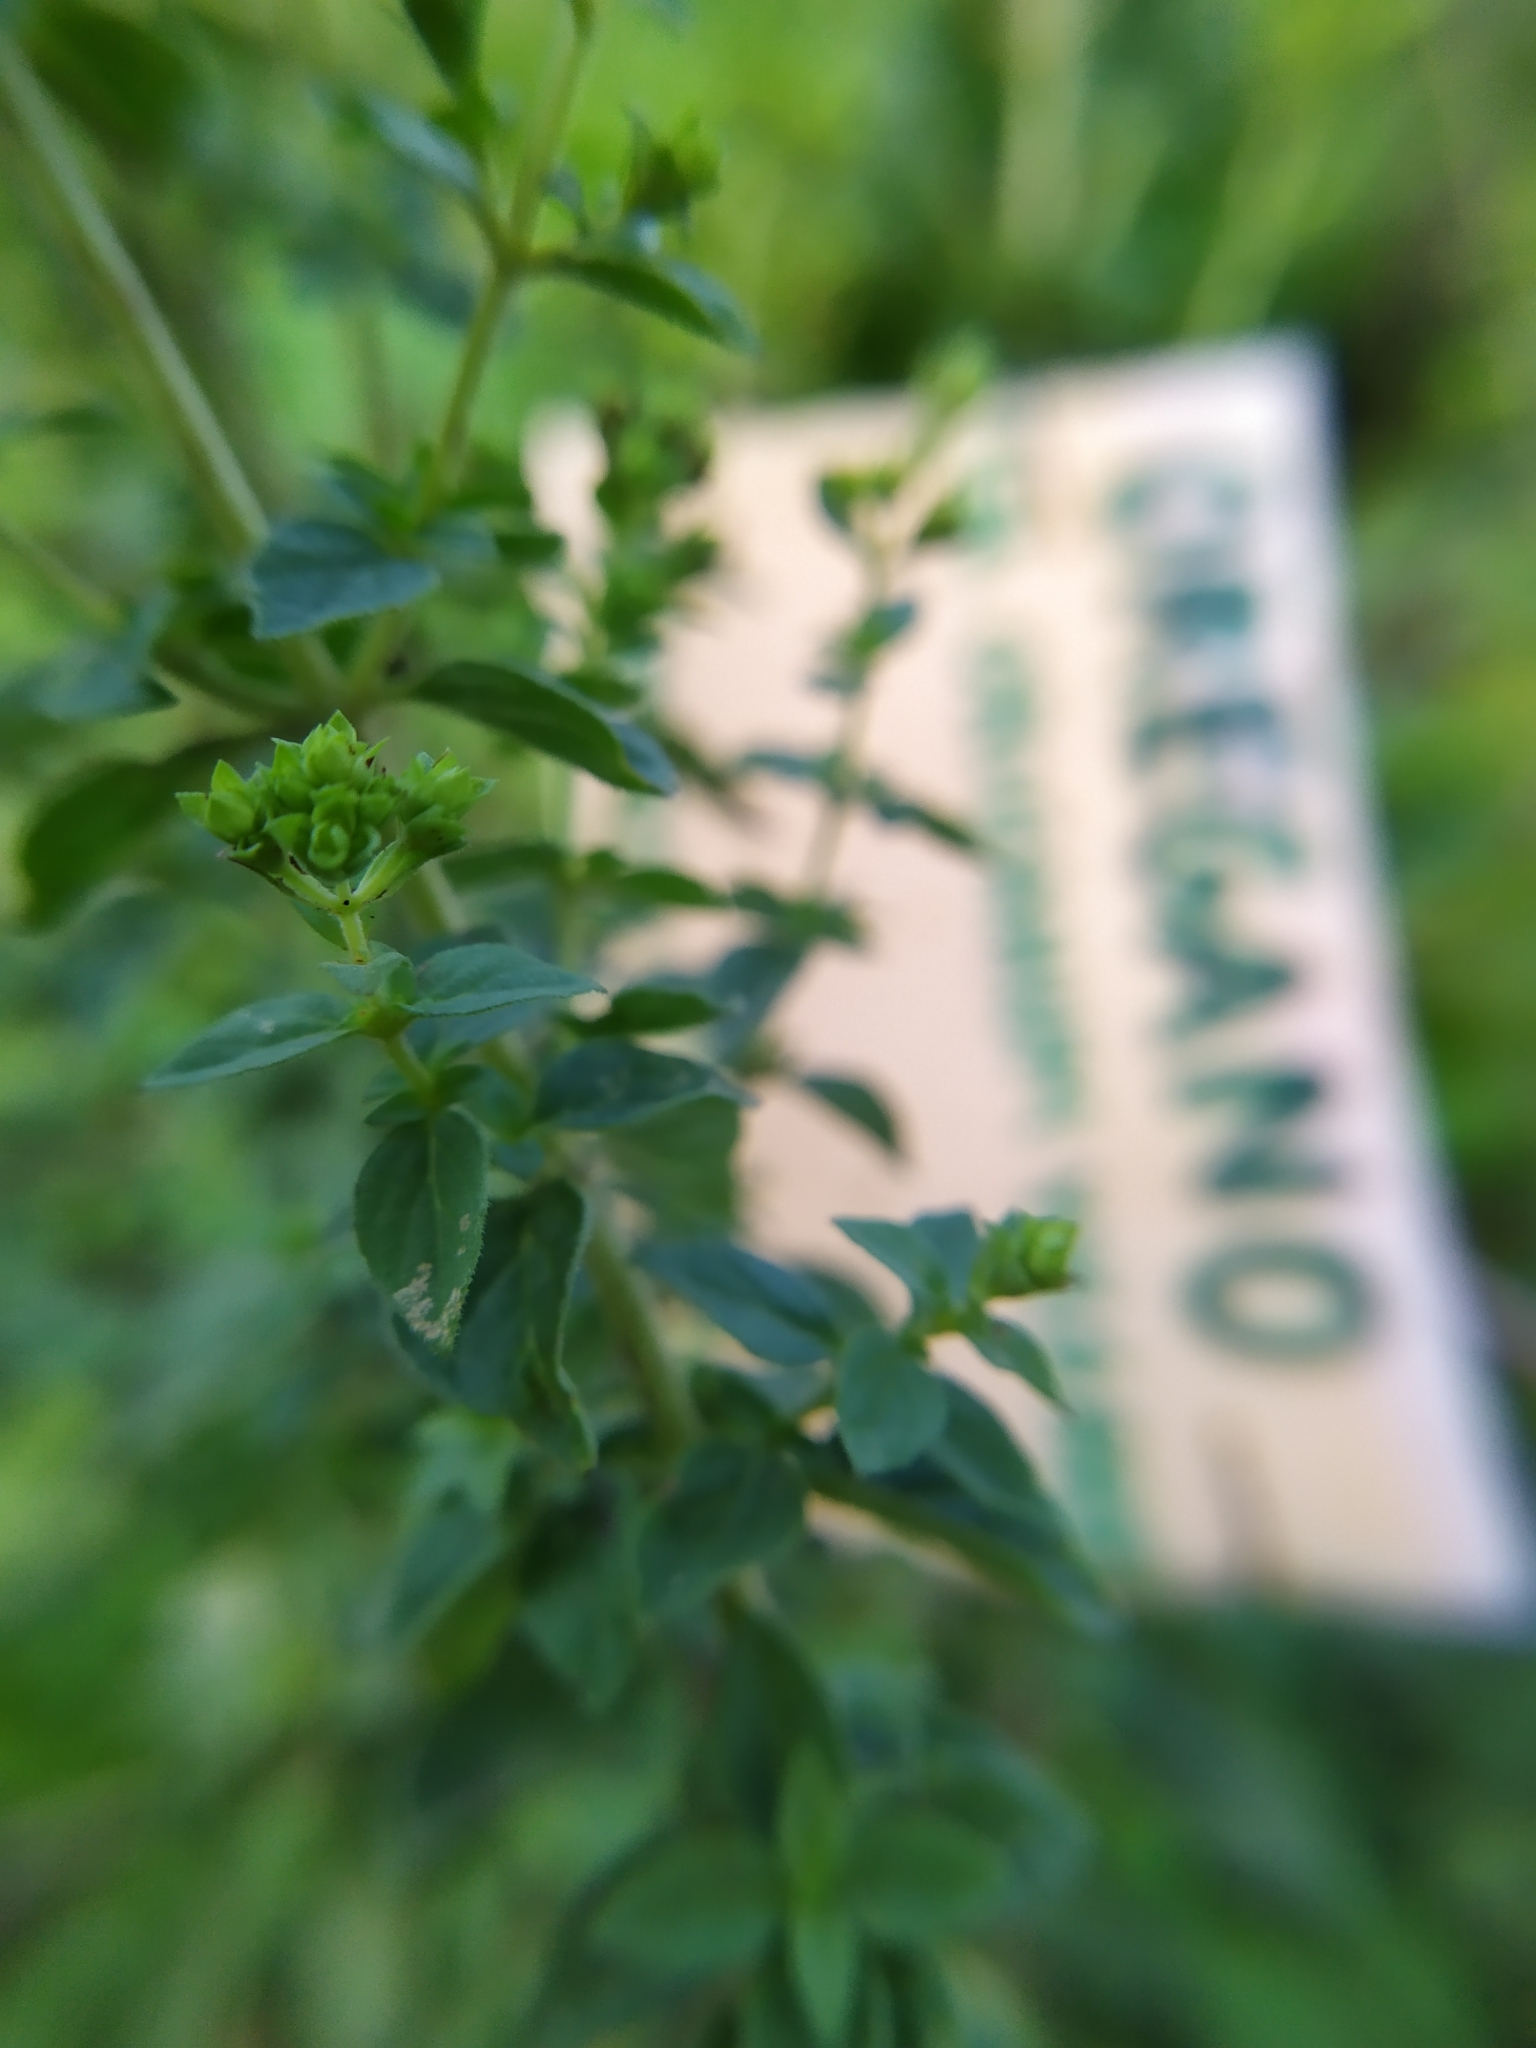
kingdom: Plantae
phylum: Tracheophyta
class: Magnoliopsida
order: Lamiales
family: Lamiaceae
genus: Origanum
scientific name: Origanum vulgare
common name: Wild marjoram
